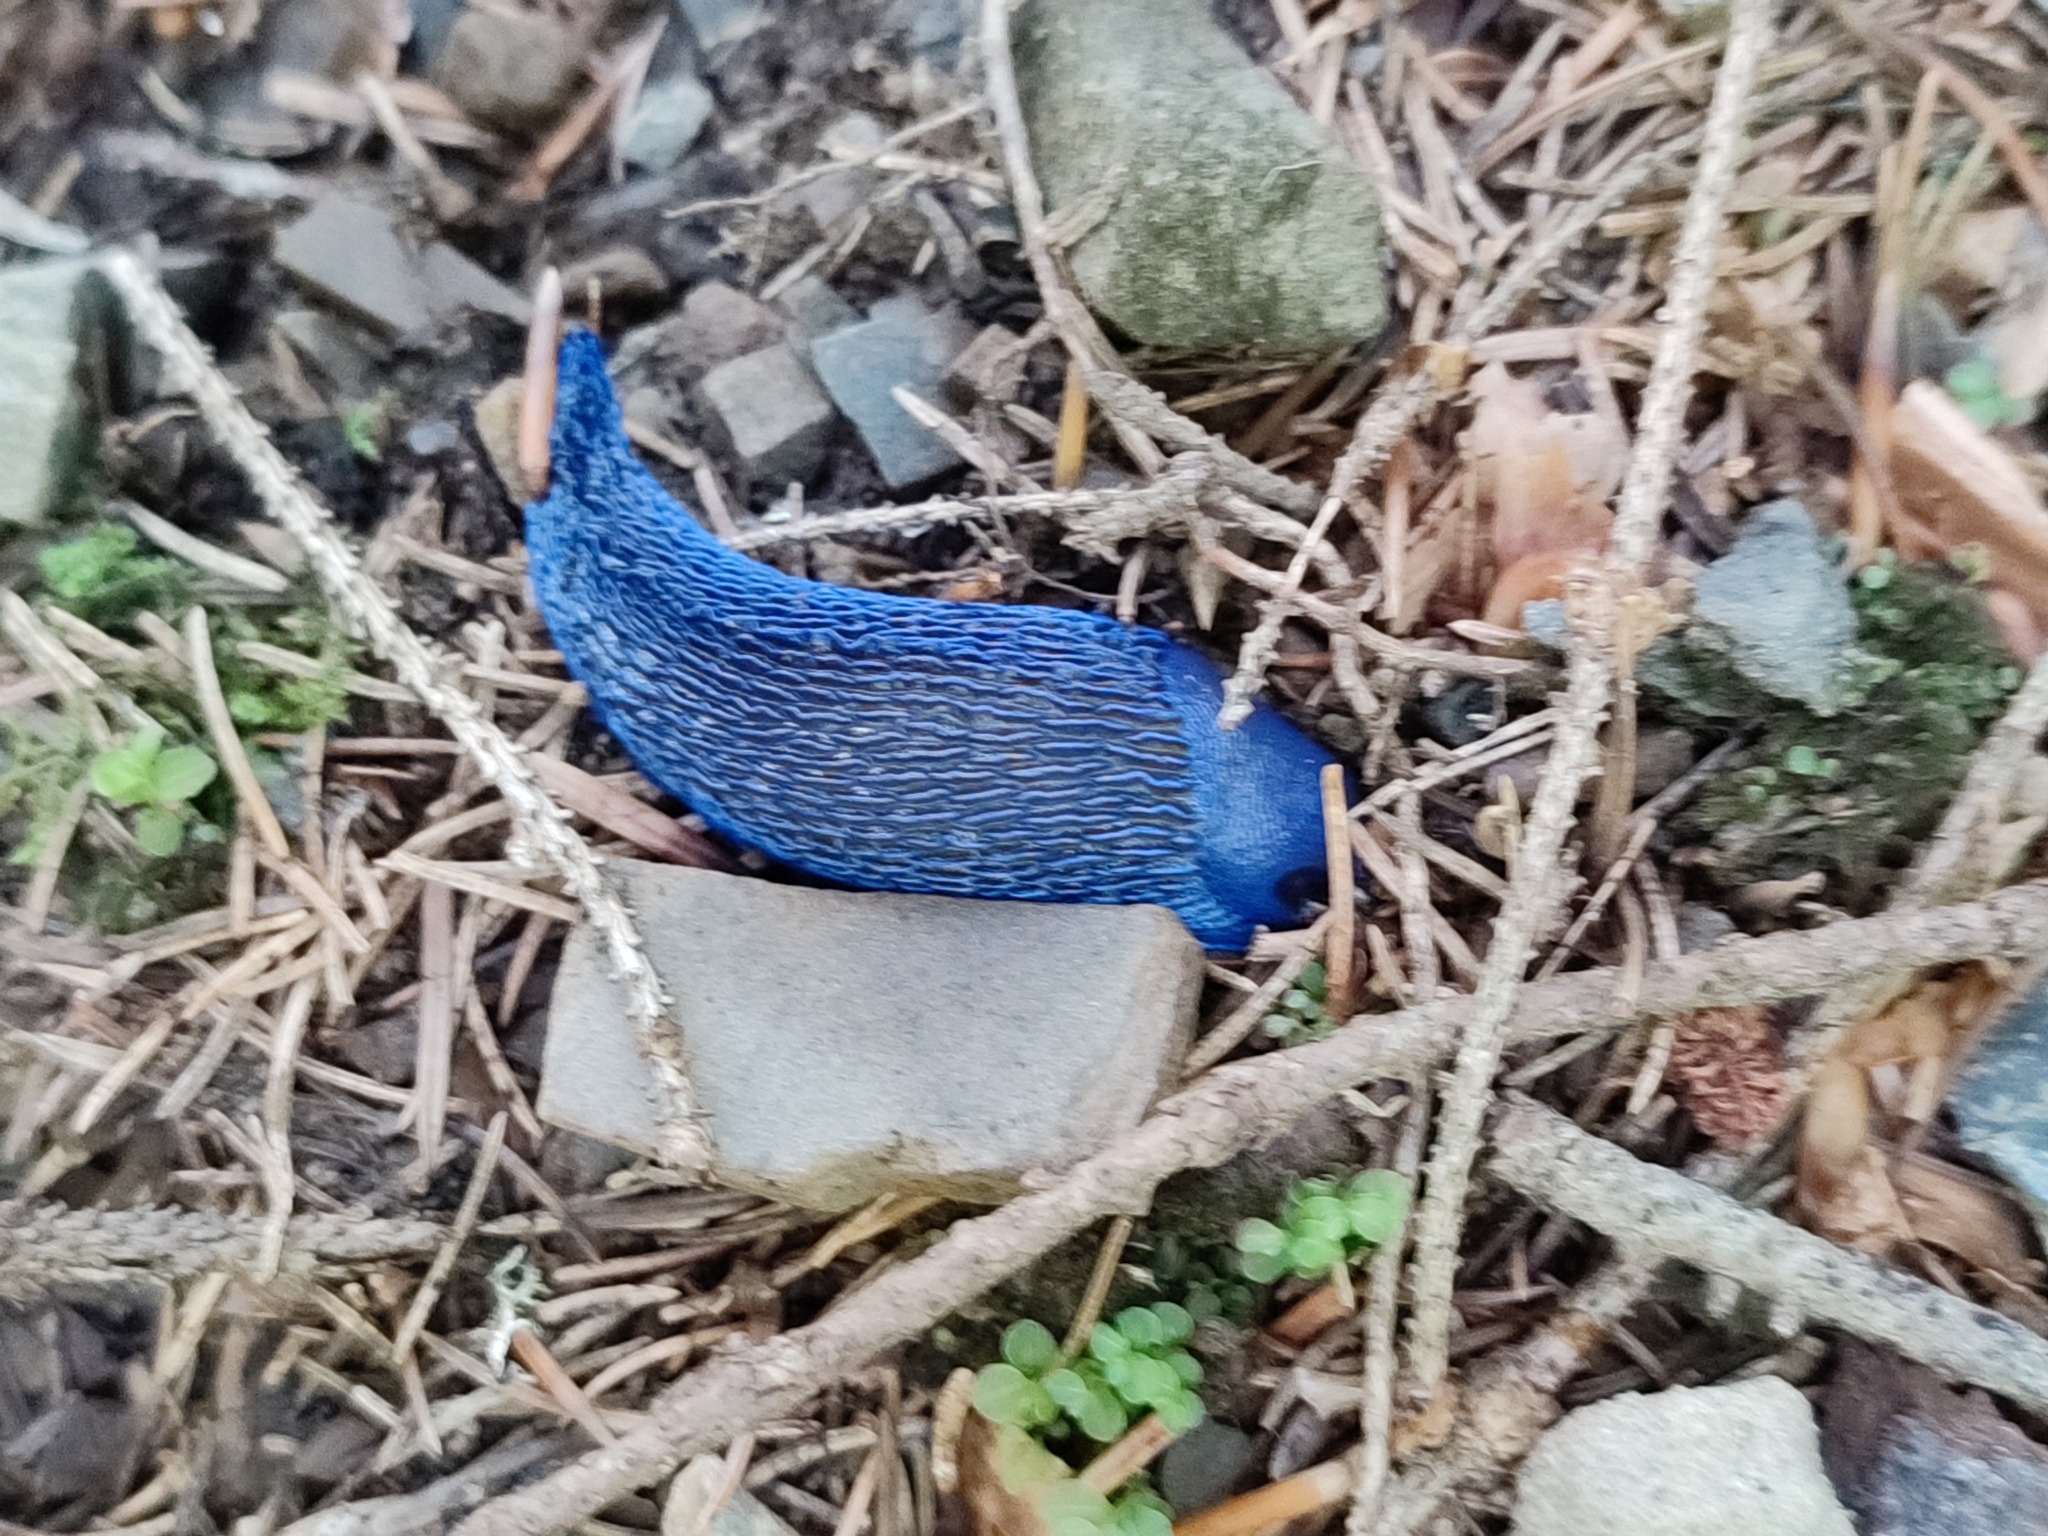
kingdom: Animalia
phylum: Mollusca
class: Gastropoda
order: Stylommatophora
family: Limacidae
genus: Bielzia
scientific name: Bielzia coerulans
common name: Carpathian blue slug
